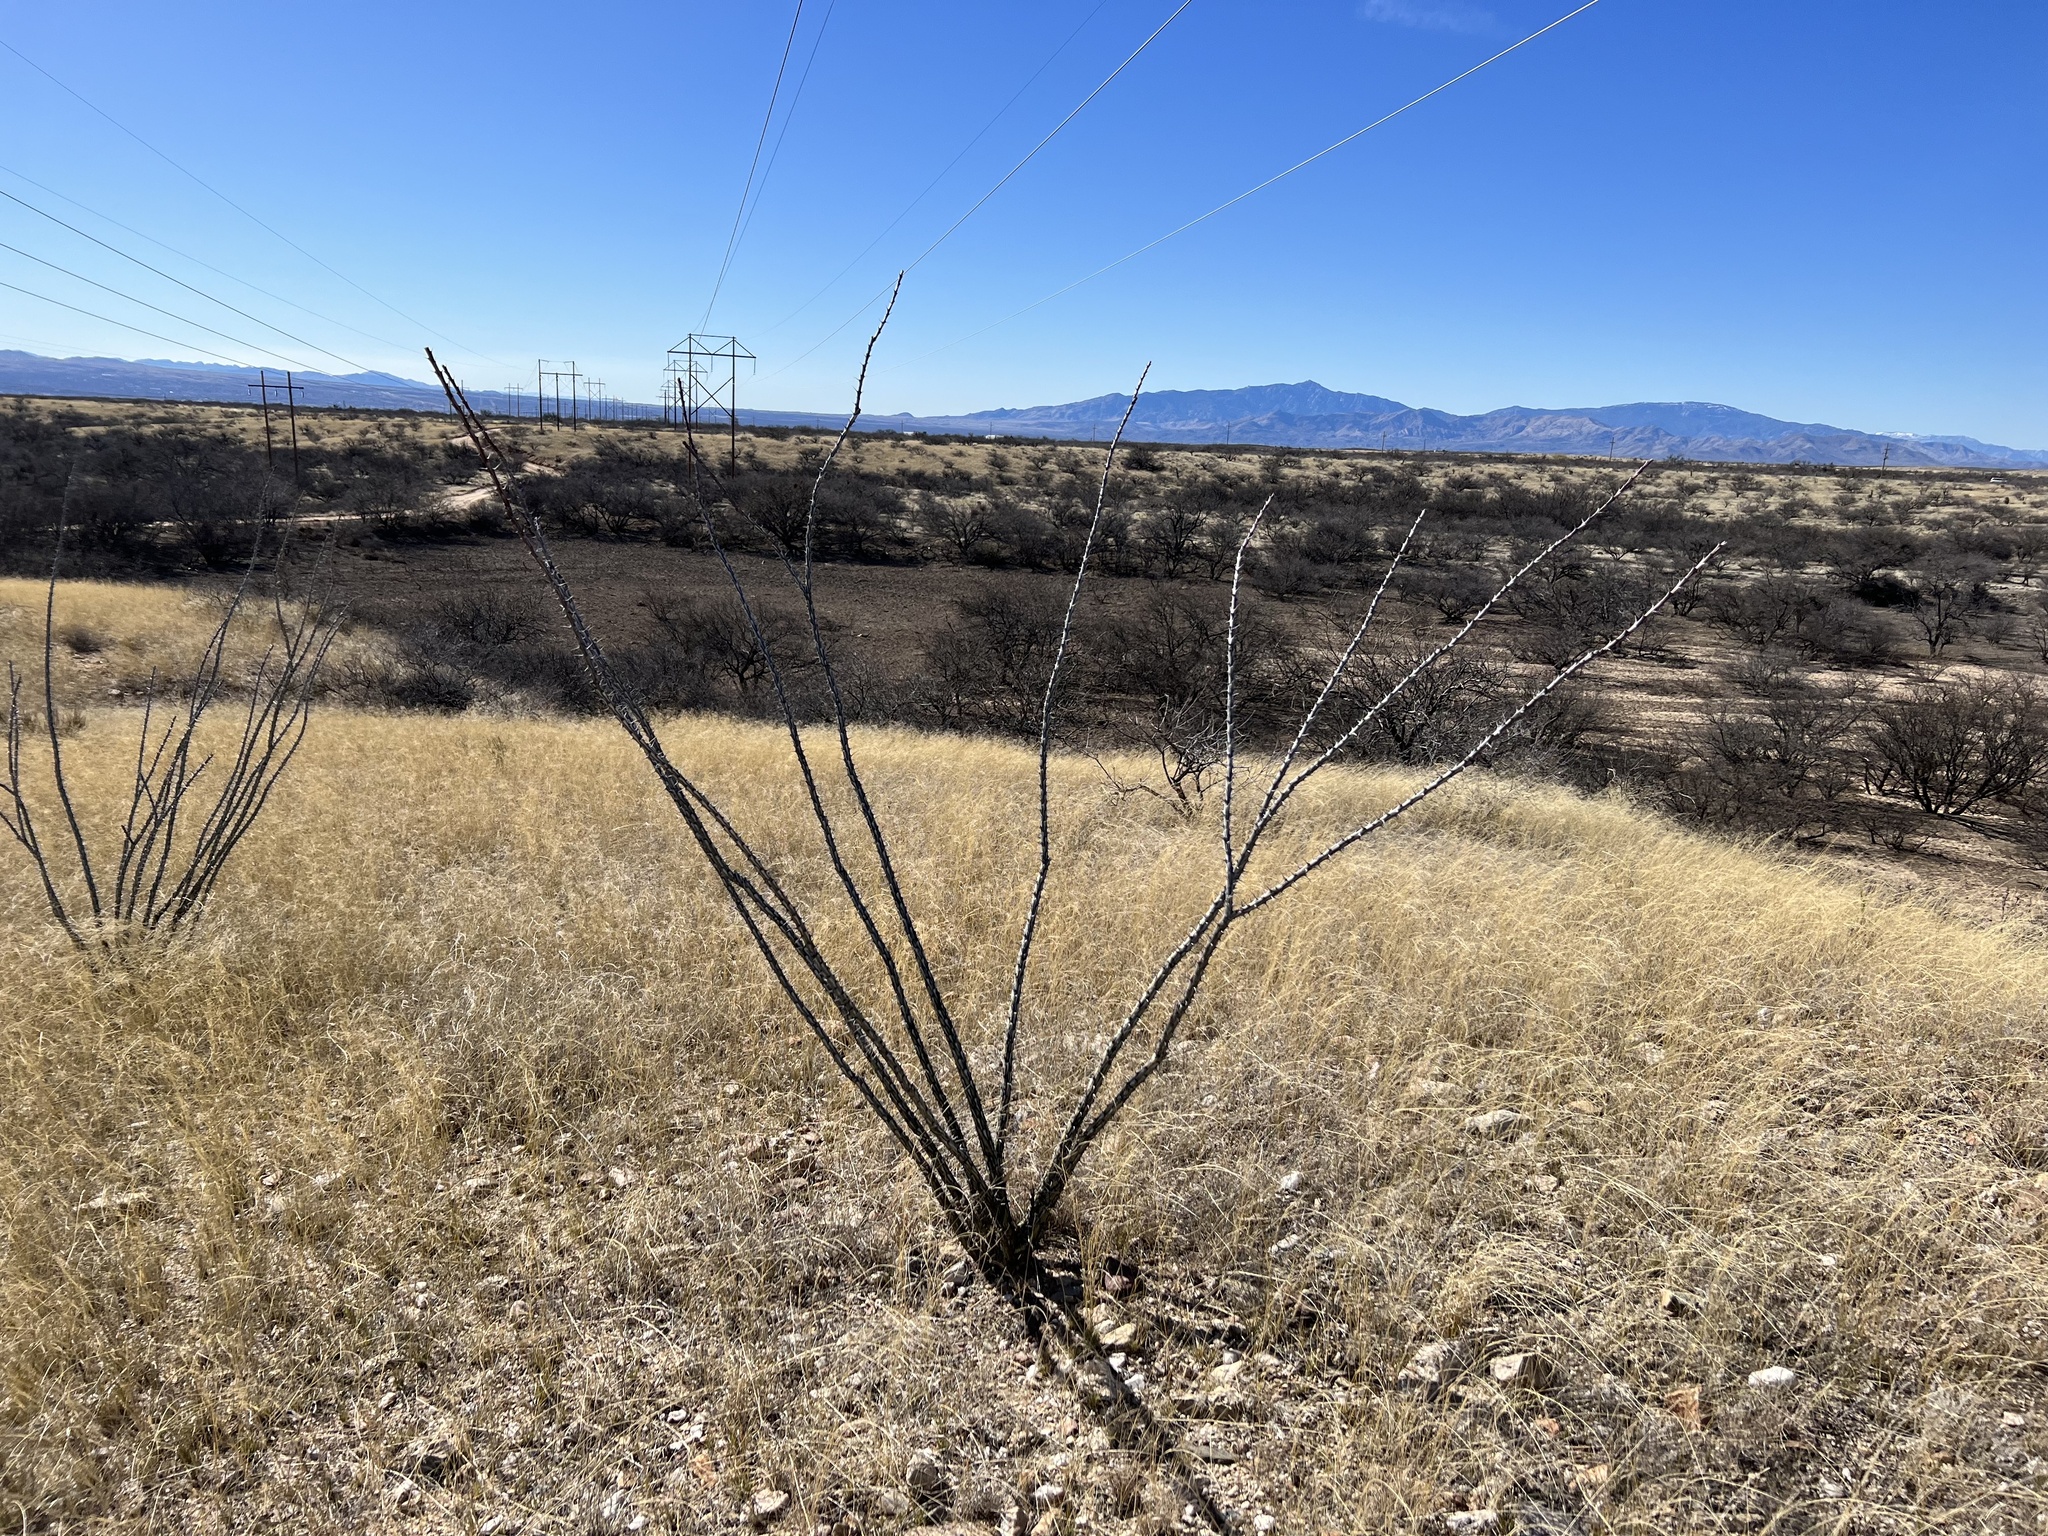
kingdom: Plantae
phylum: Tracheophyta
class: Magnoliopsida
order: Ericales
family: Fouquieriaceae
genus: Fouquieria
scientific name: Fouquieria splendens
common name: Vine-cactus
